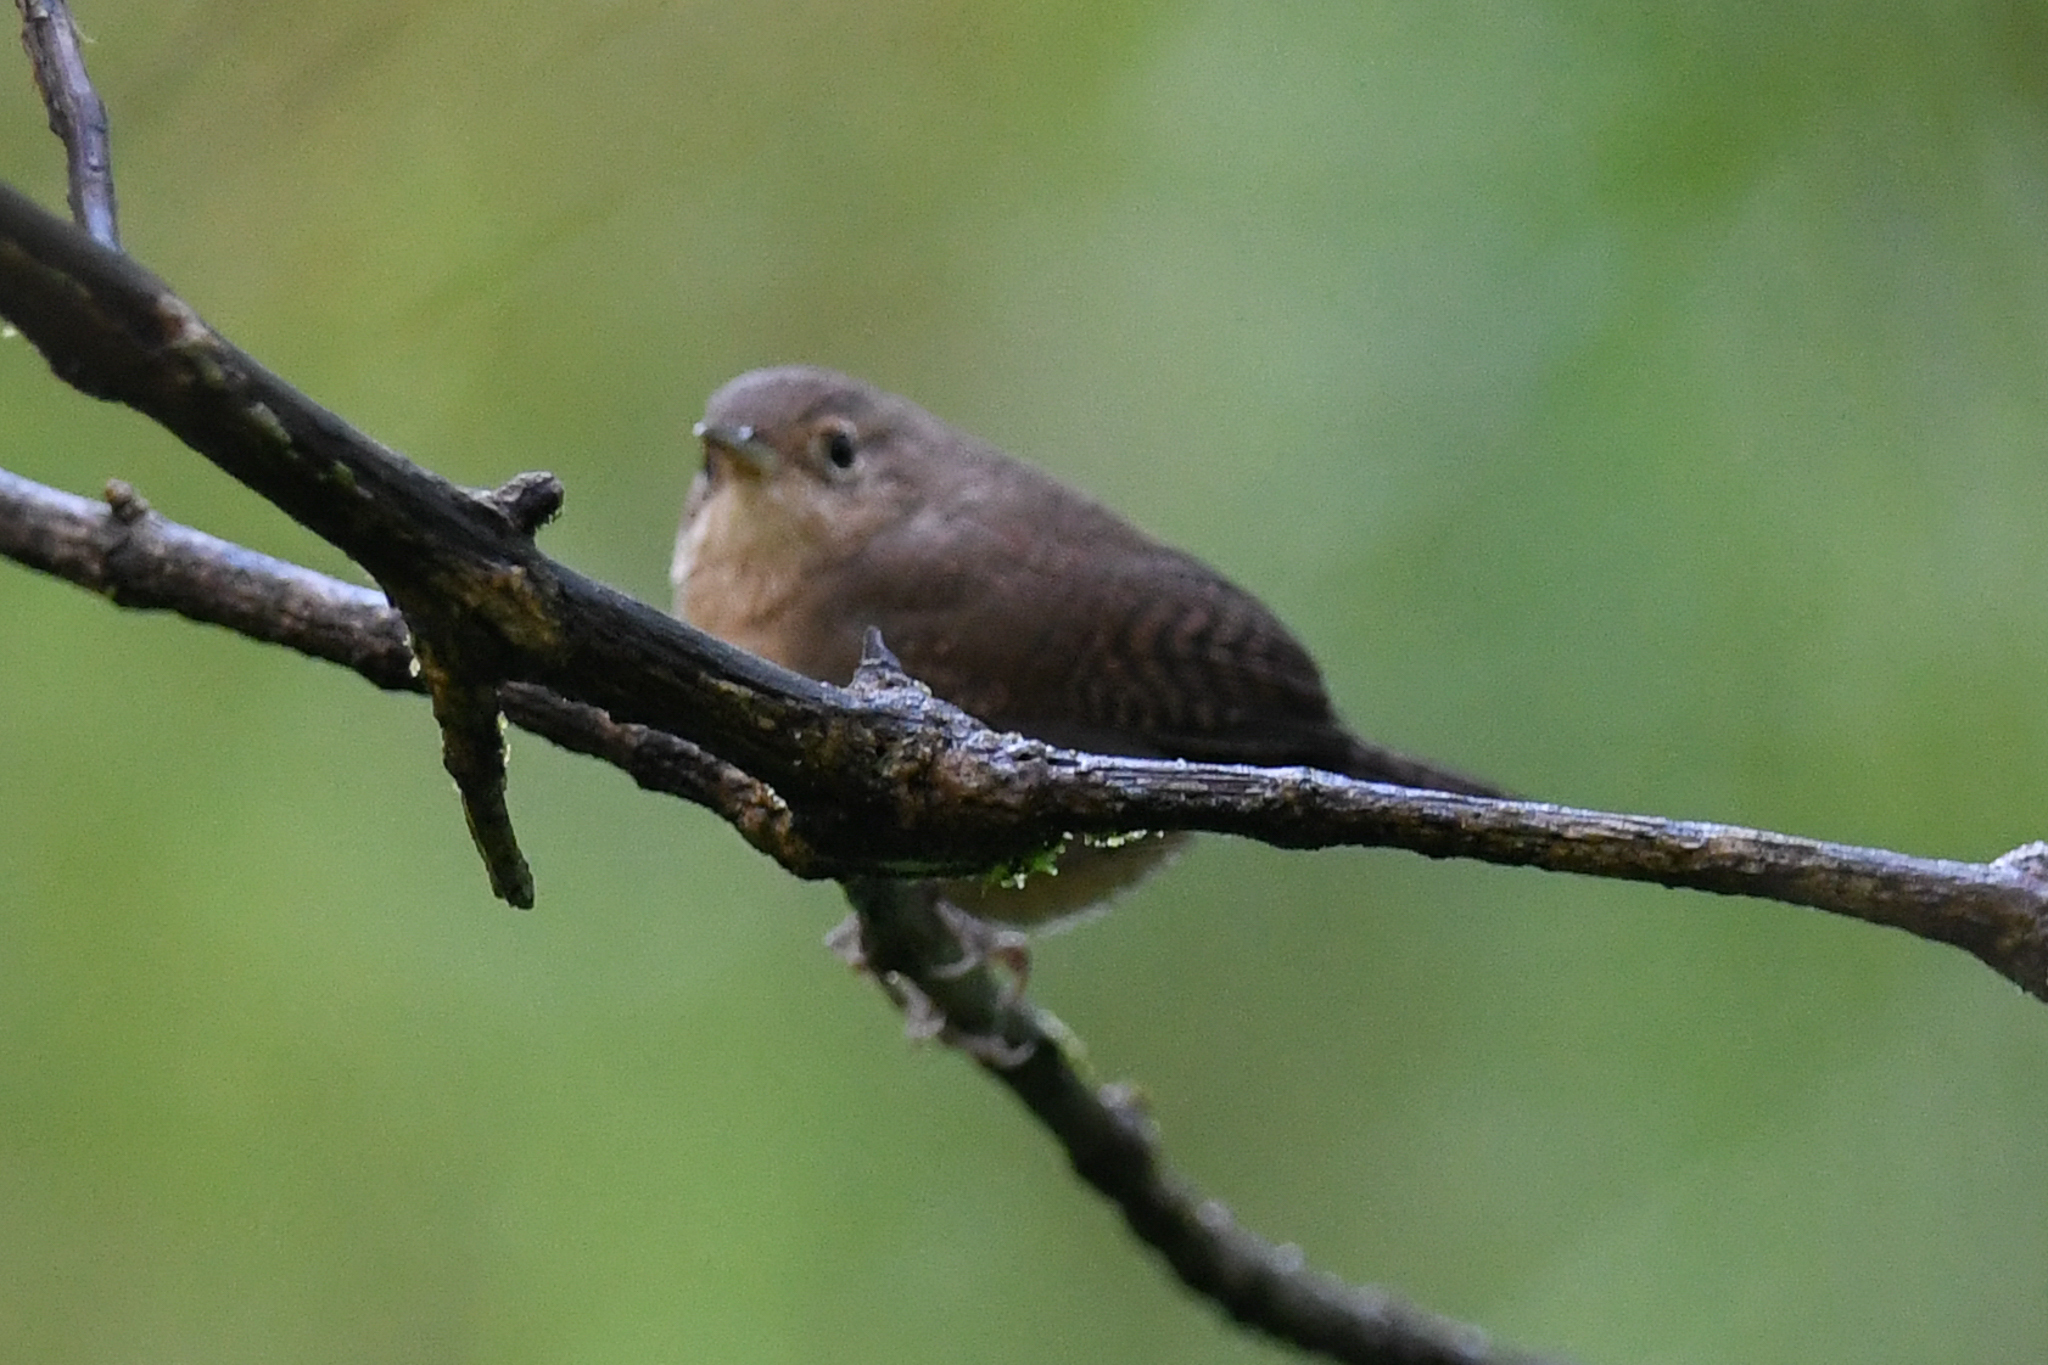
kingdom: Animalia
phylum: Chordata
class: Aves
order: Passeriformes
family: Troglodytidae
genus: Troglodytes
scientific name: Troglodytes aedon
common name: House wren
